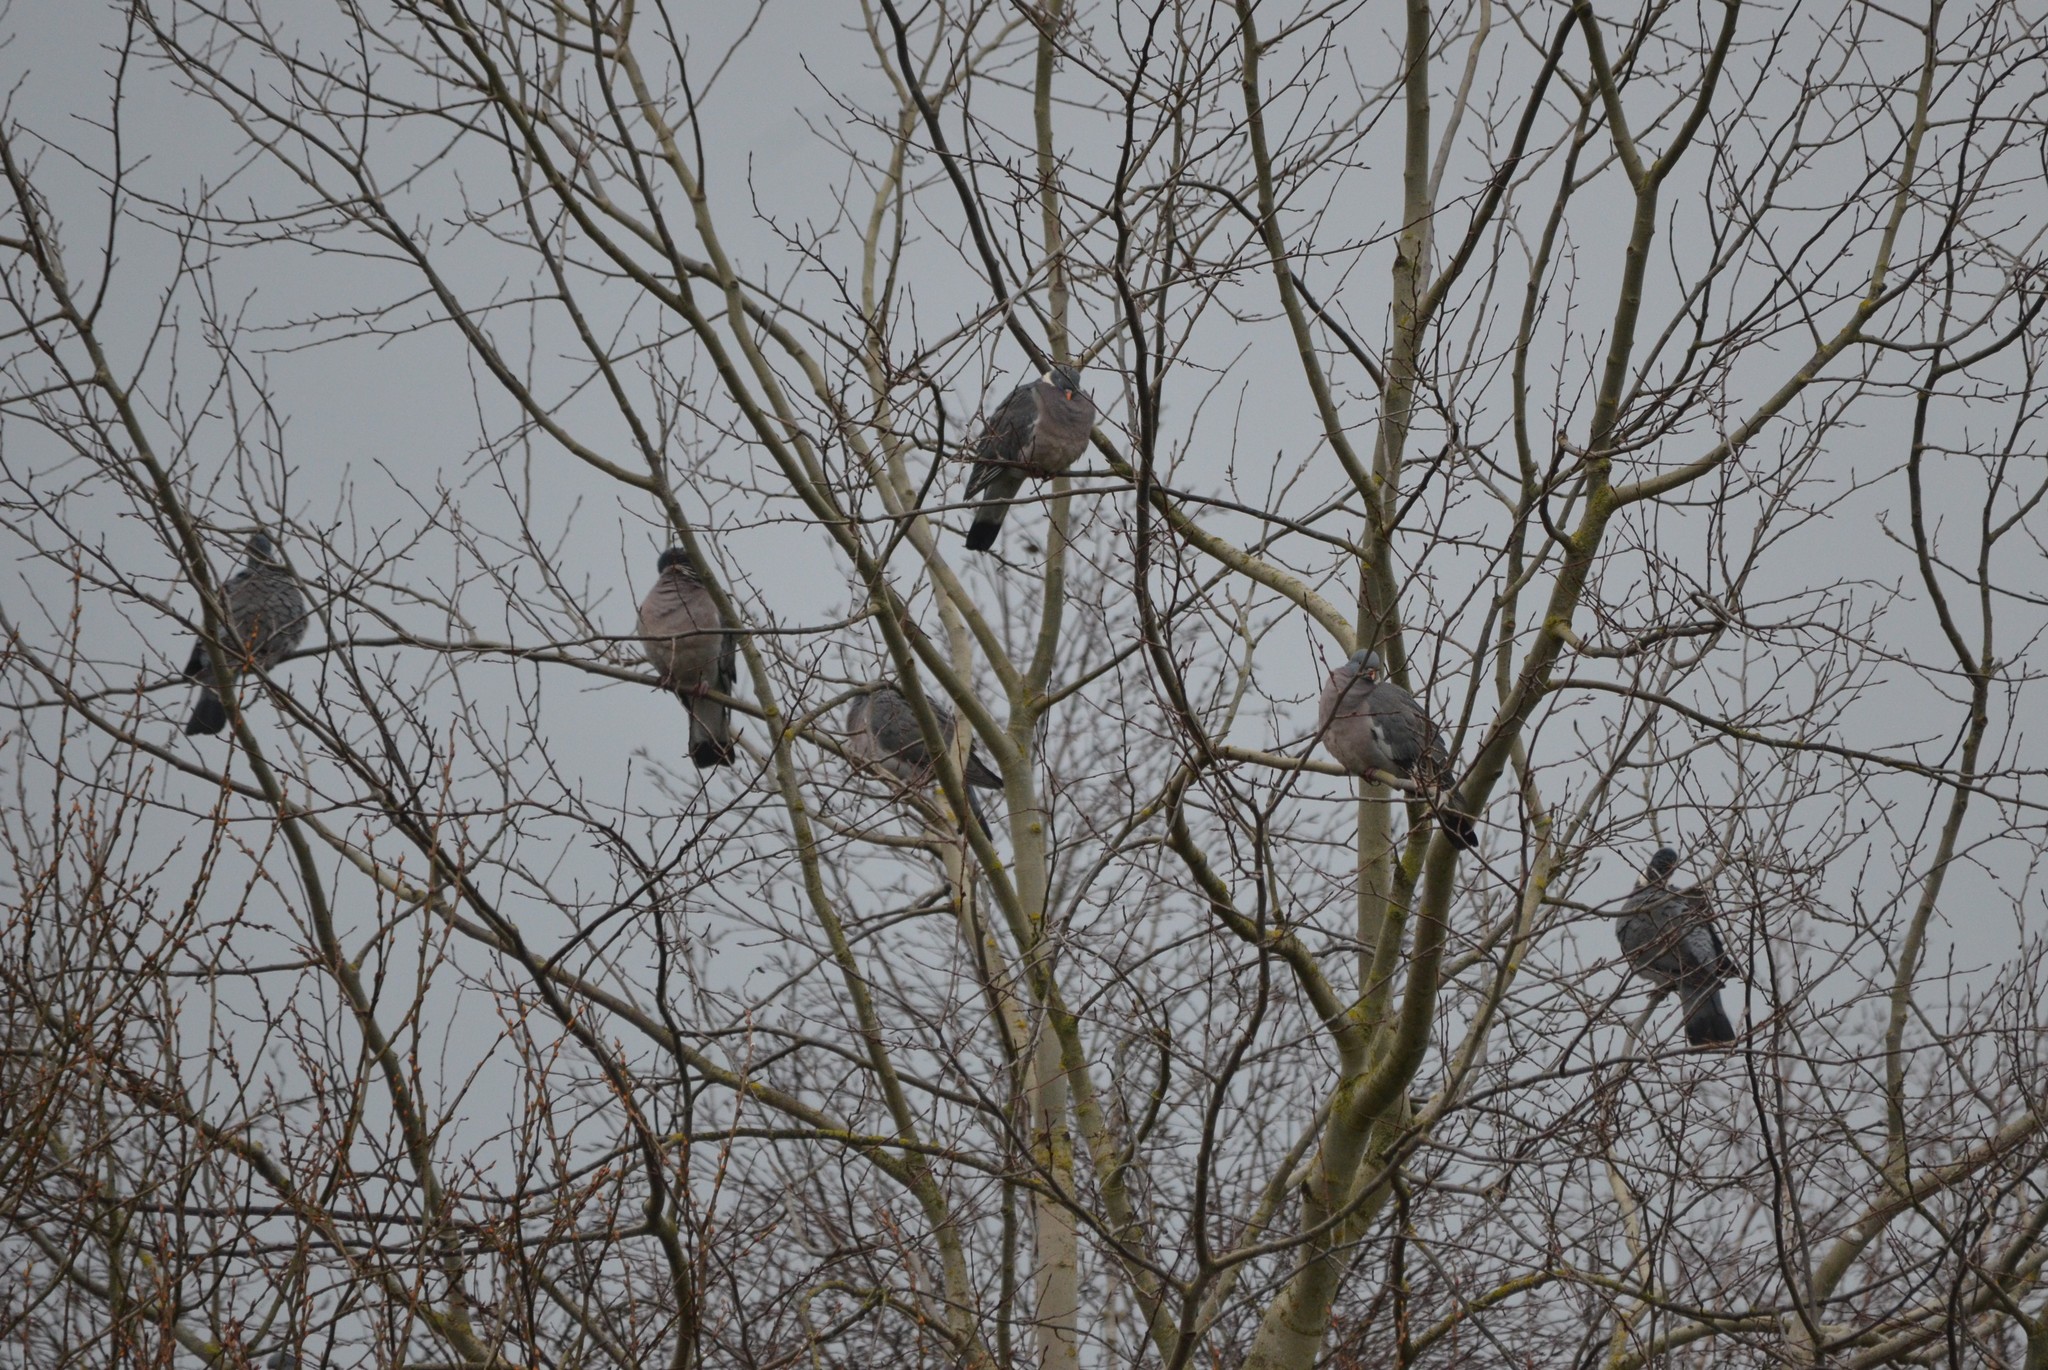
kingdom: Animalia
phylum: Chordata
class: Aves
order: Columbiformes
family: Columbidae
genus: Columba
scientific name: Columba palumbus
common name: Common wood pigeon
